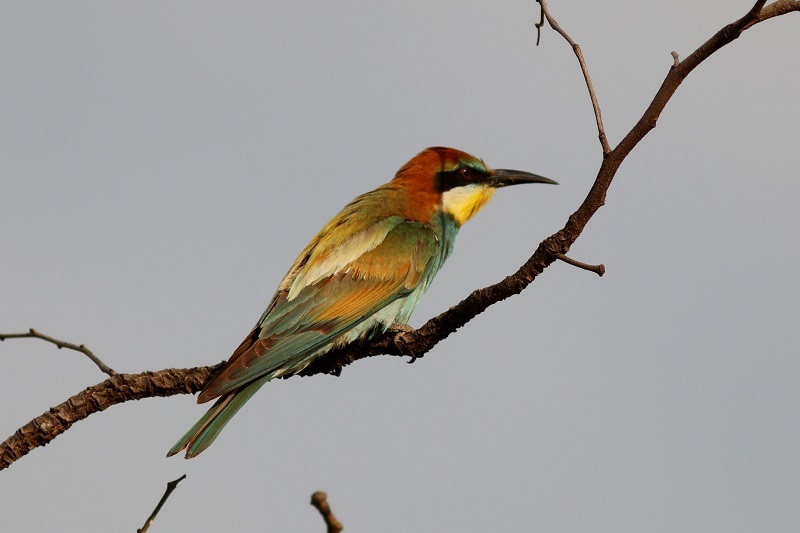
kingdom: Animalia
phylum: Chordata
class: Aves
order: Coraciiformes
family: Meropidae
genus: Merops
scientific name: Merops apiaster
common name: European bee-eater
